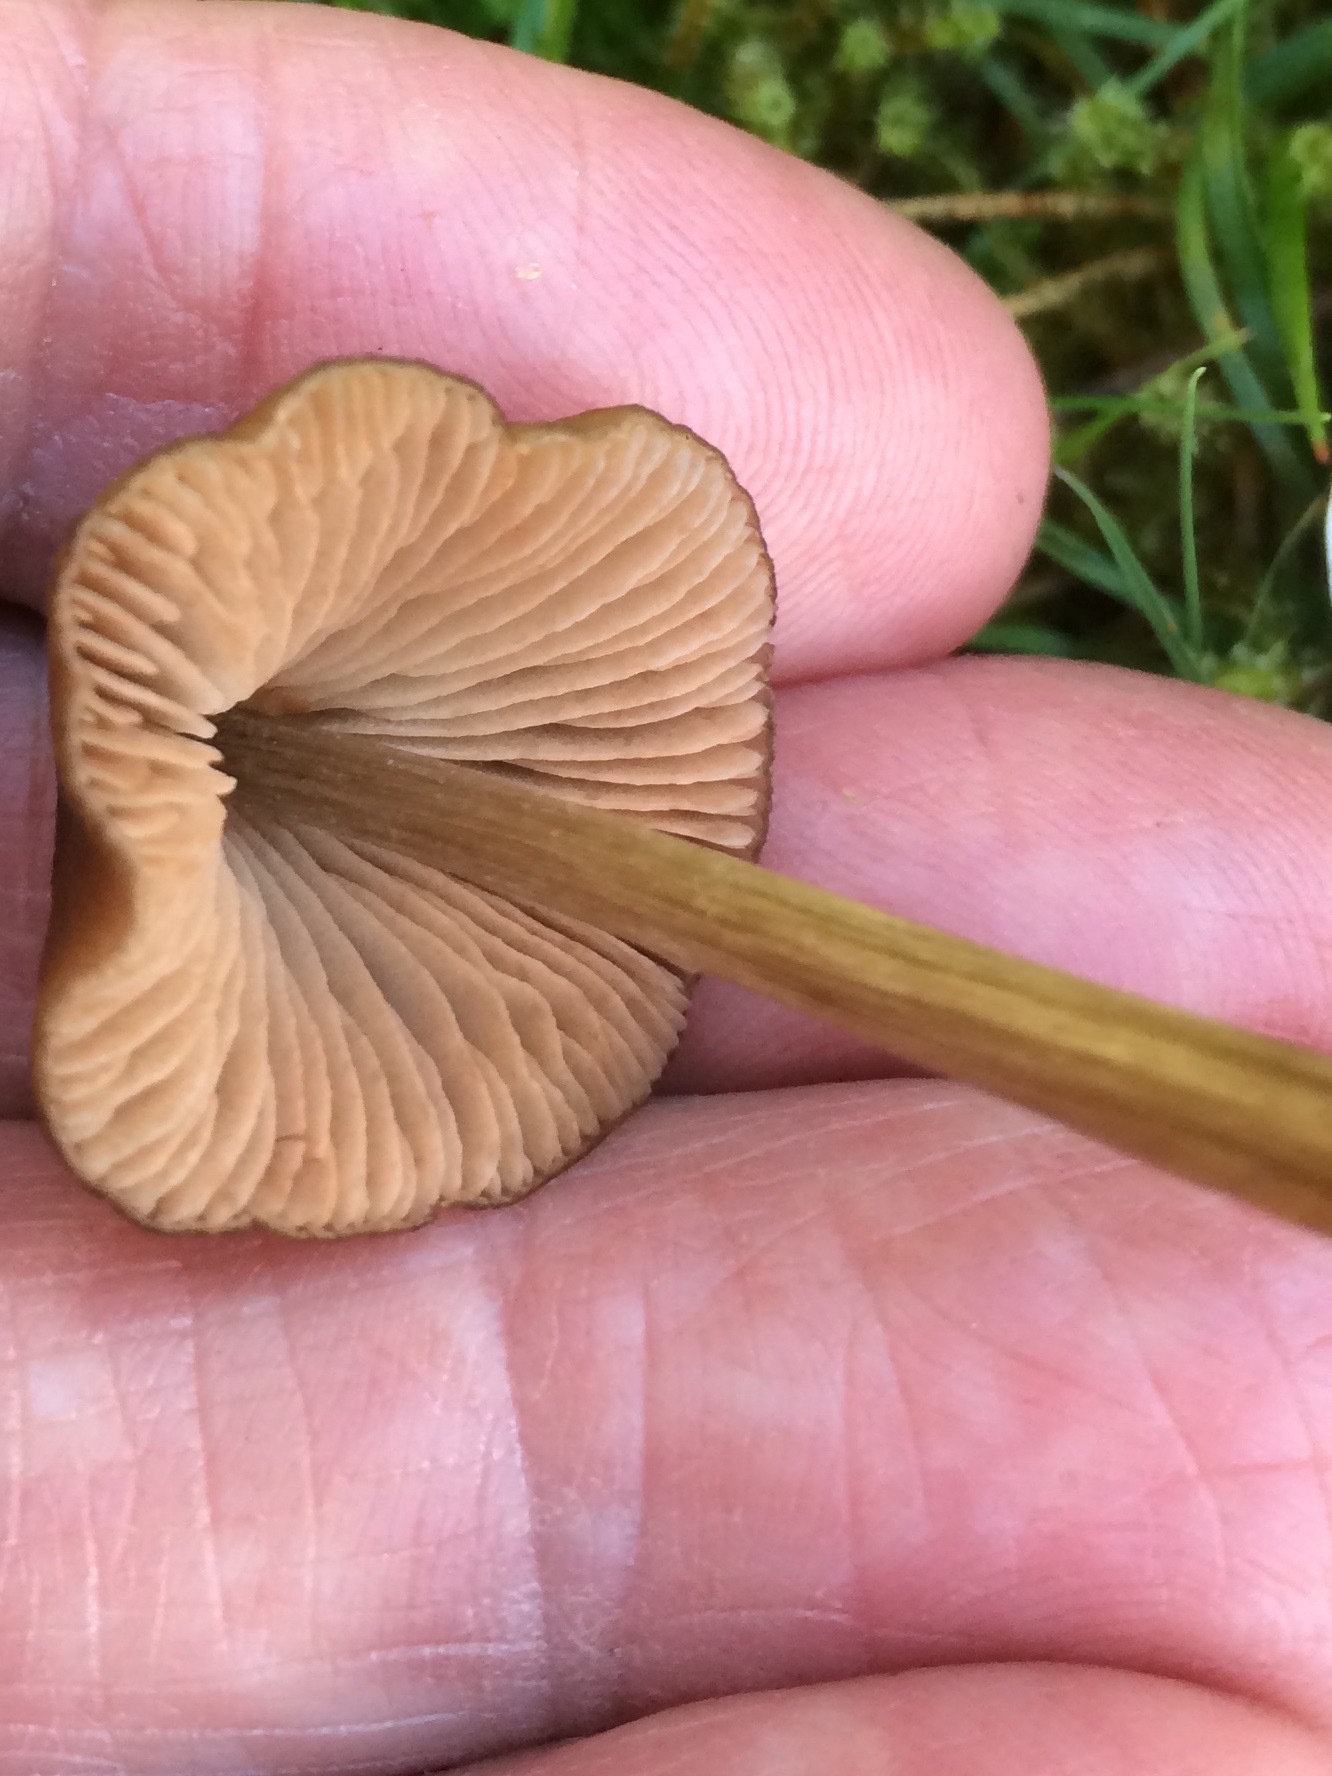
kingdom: Fungi
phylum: Basidiomycota
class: Agaricomycetes
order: Agaricales
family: Entolomataceae
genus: Entoloma
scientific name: Entoloma conferendum
